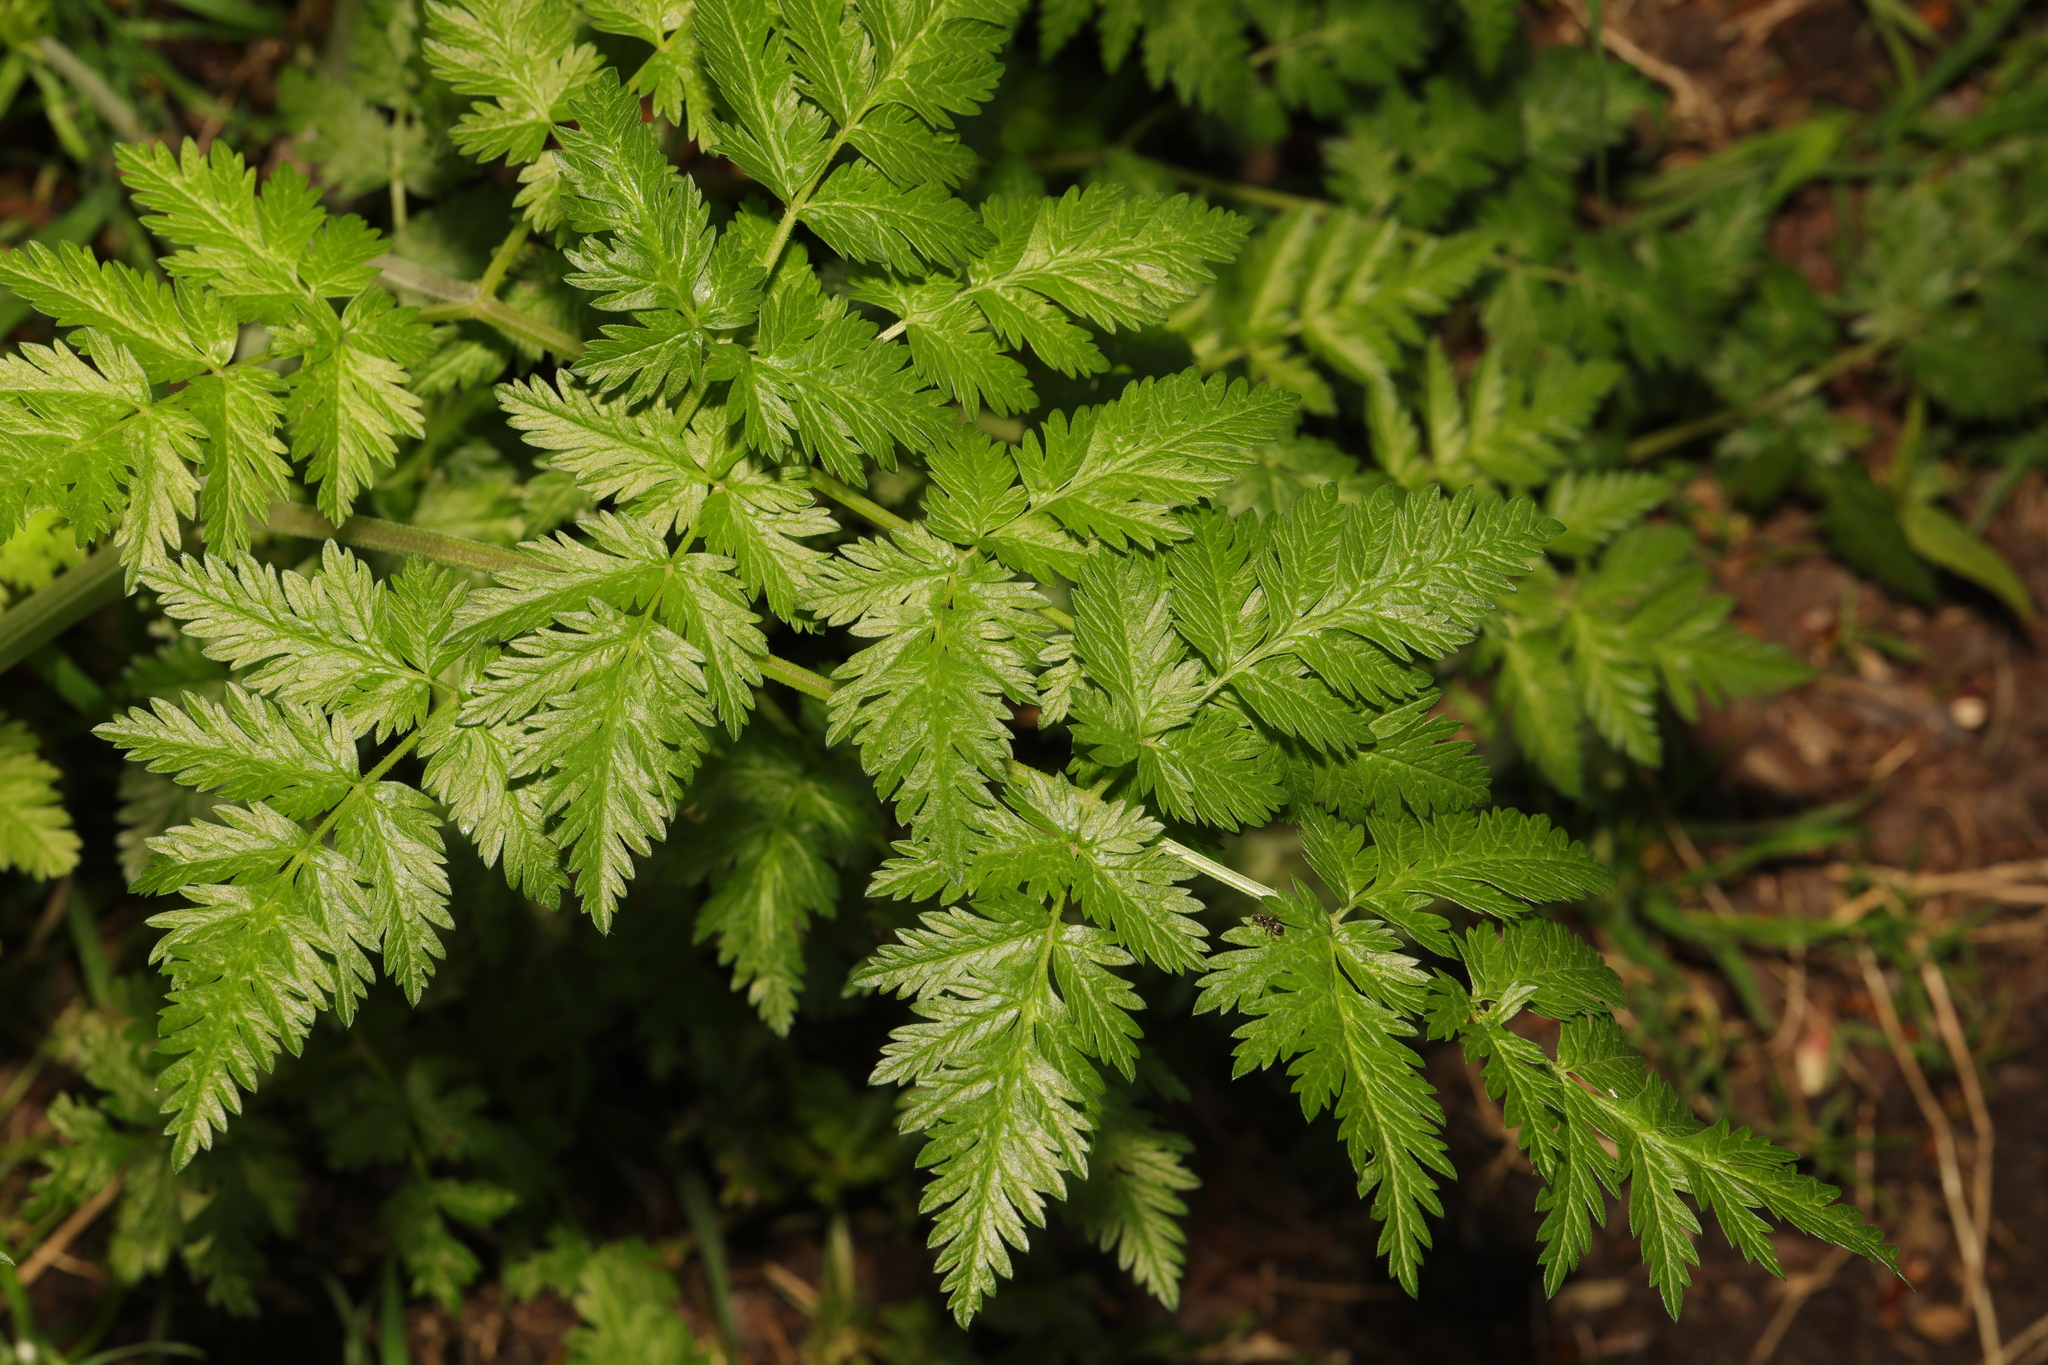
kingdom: Plantae
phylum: Tracheophyta
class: Magnoliopsida
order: Apiales
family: Apiaceae
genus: Anthriscus
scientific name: Anthriscus sylvestris
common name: Cow parsley
